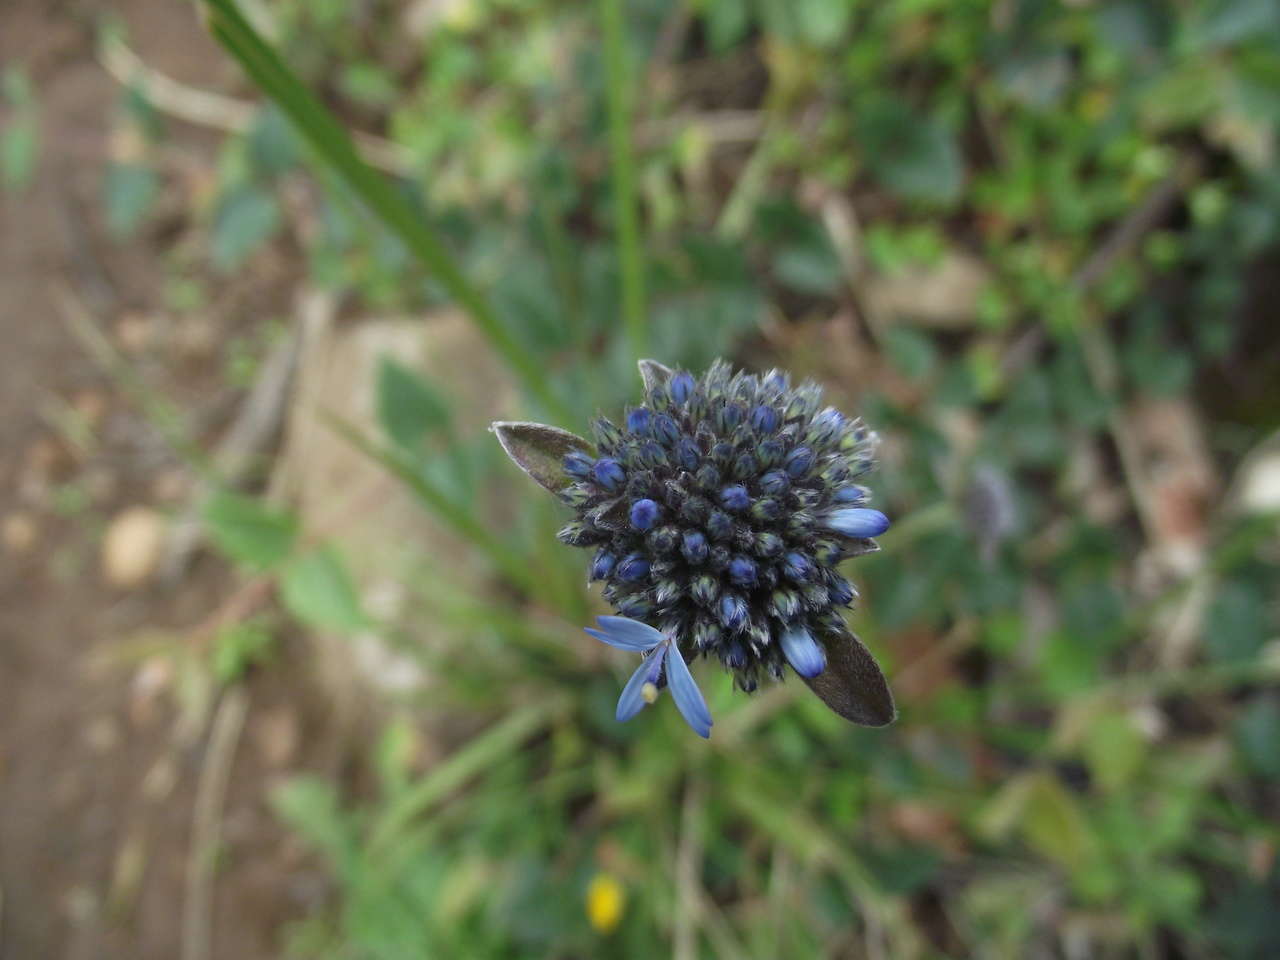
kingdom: Plantae
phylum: Tracheophyta
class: Magnoliopsida
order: Asterales
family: Goodeniaceae
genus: Brunonia
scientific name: Brunonia australis
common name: Blue pincushion
